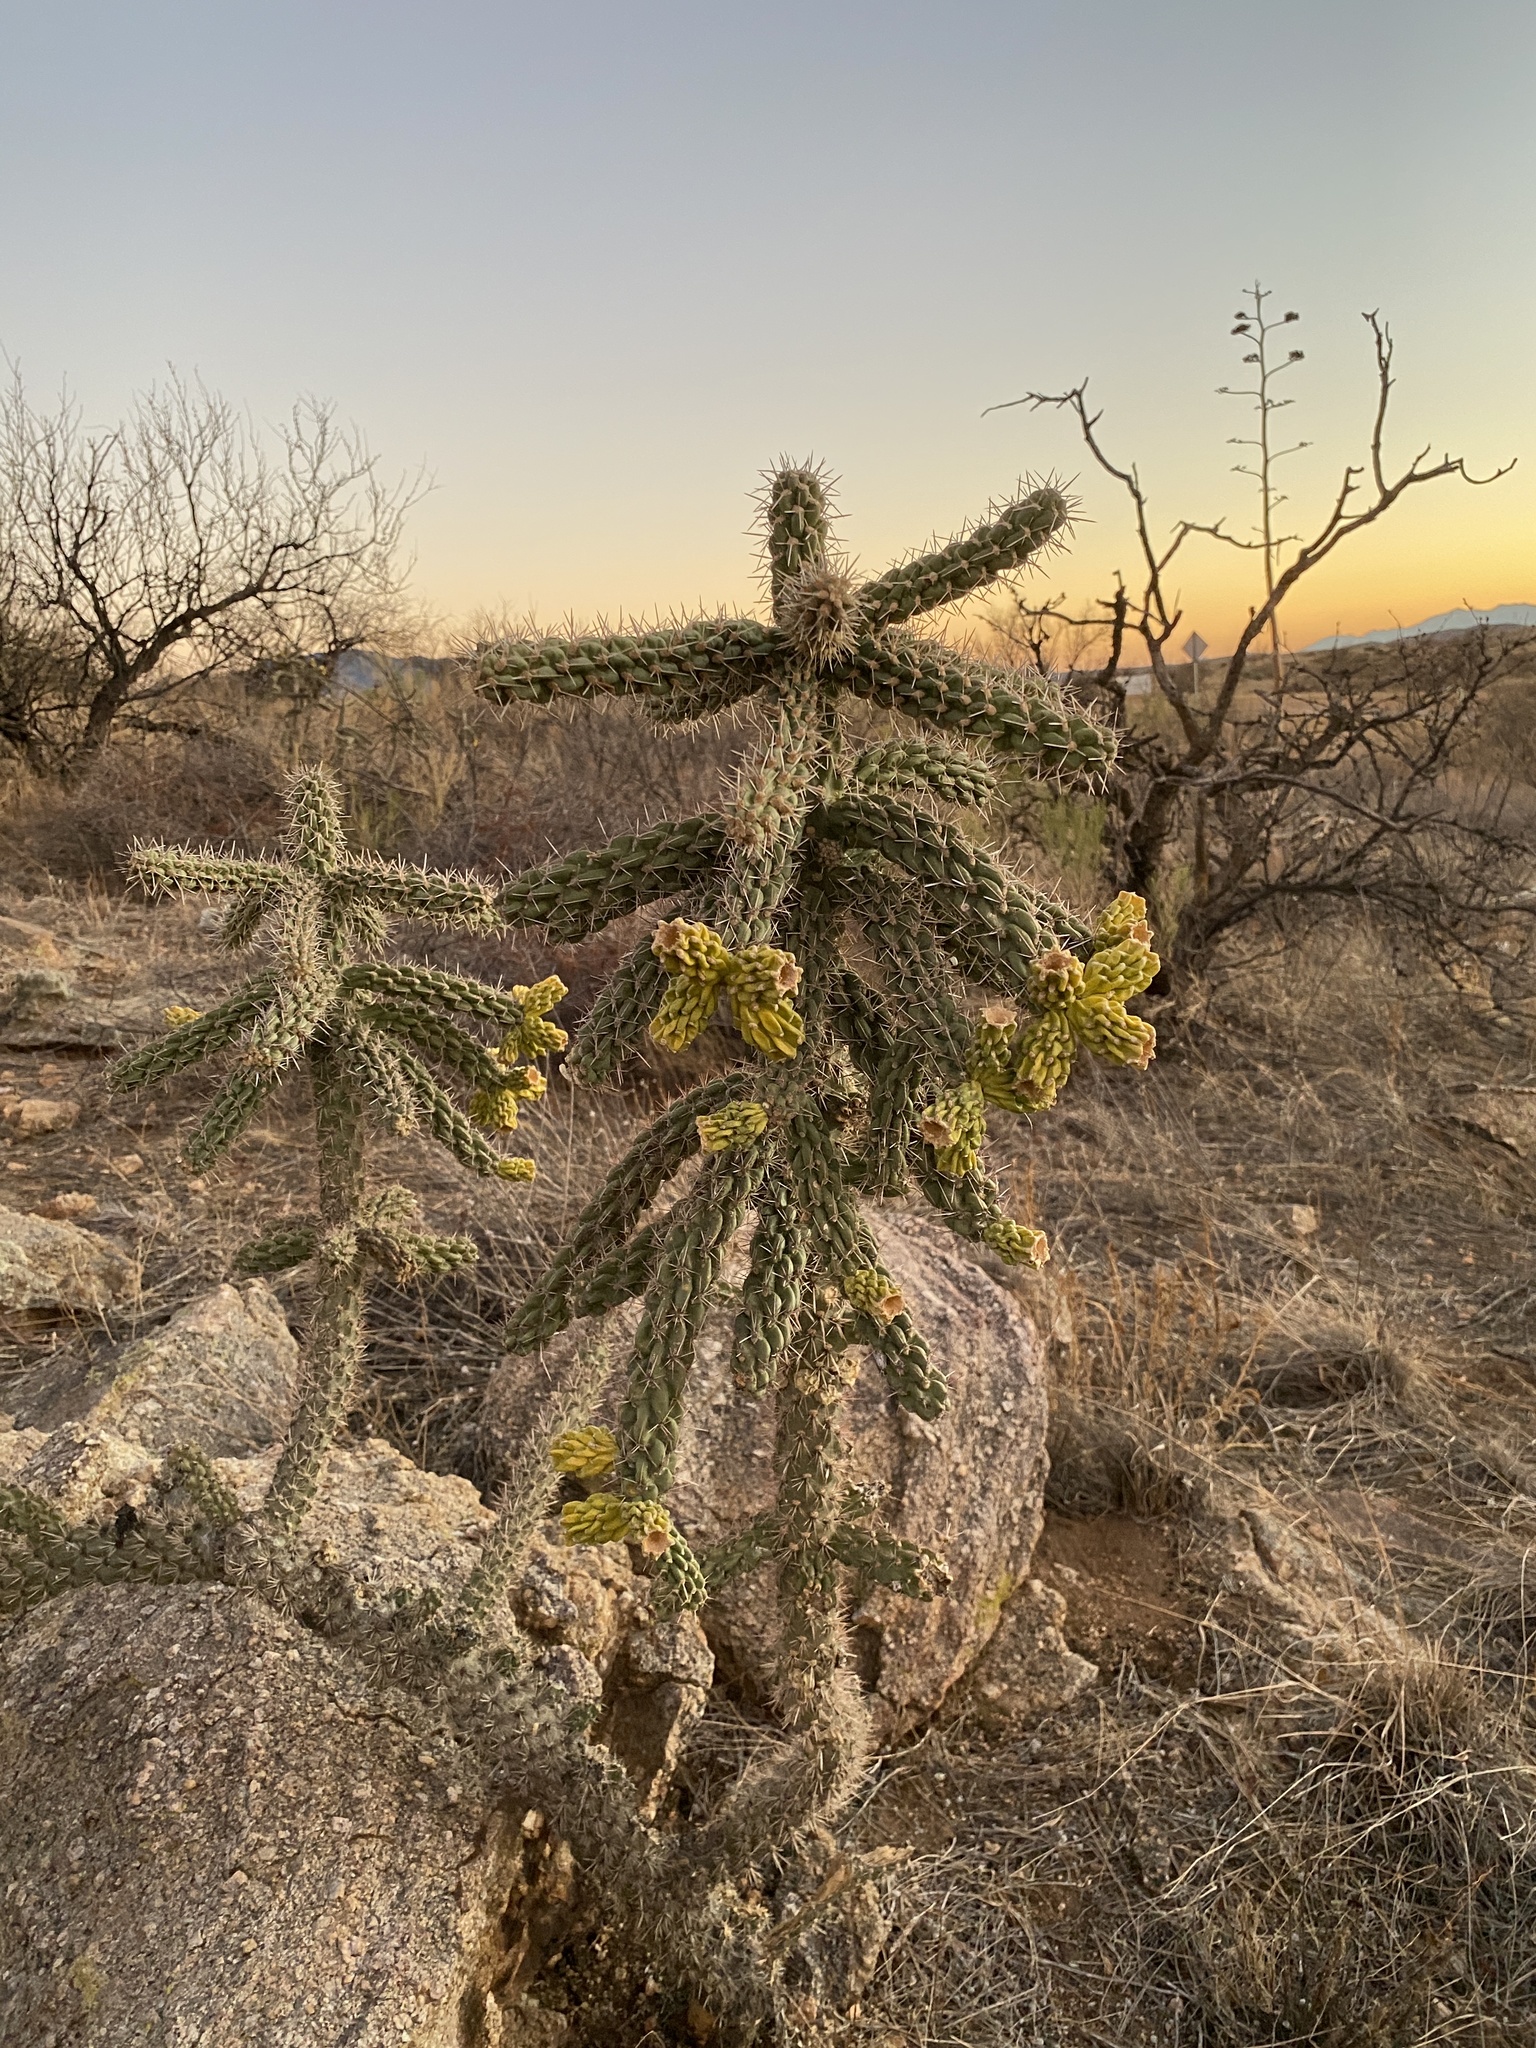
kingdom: Plantae
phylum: Tracheophyta
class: Magnoliopsida
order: Caryophyllales
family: Cactaceae
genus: Cylindropuntia
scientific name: Cylindropuntia imbricata
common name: Candelabrum cactus
